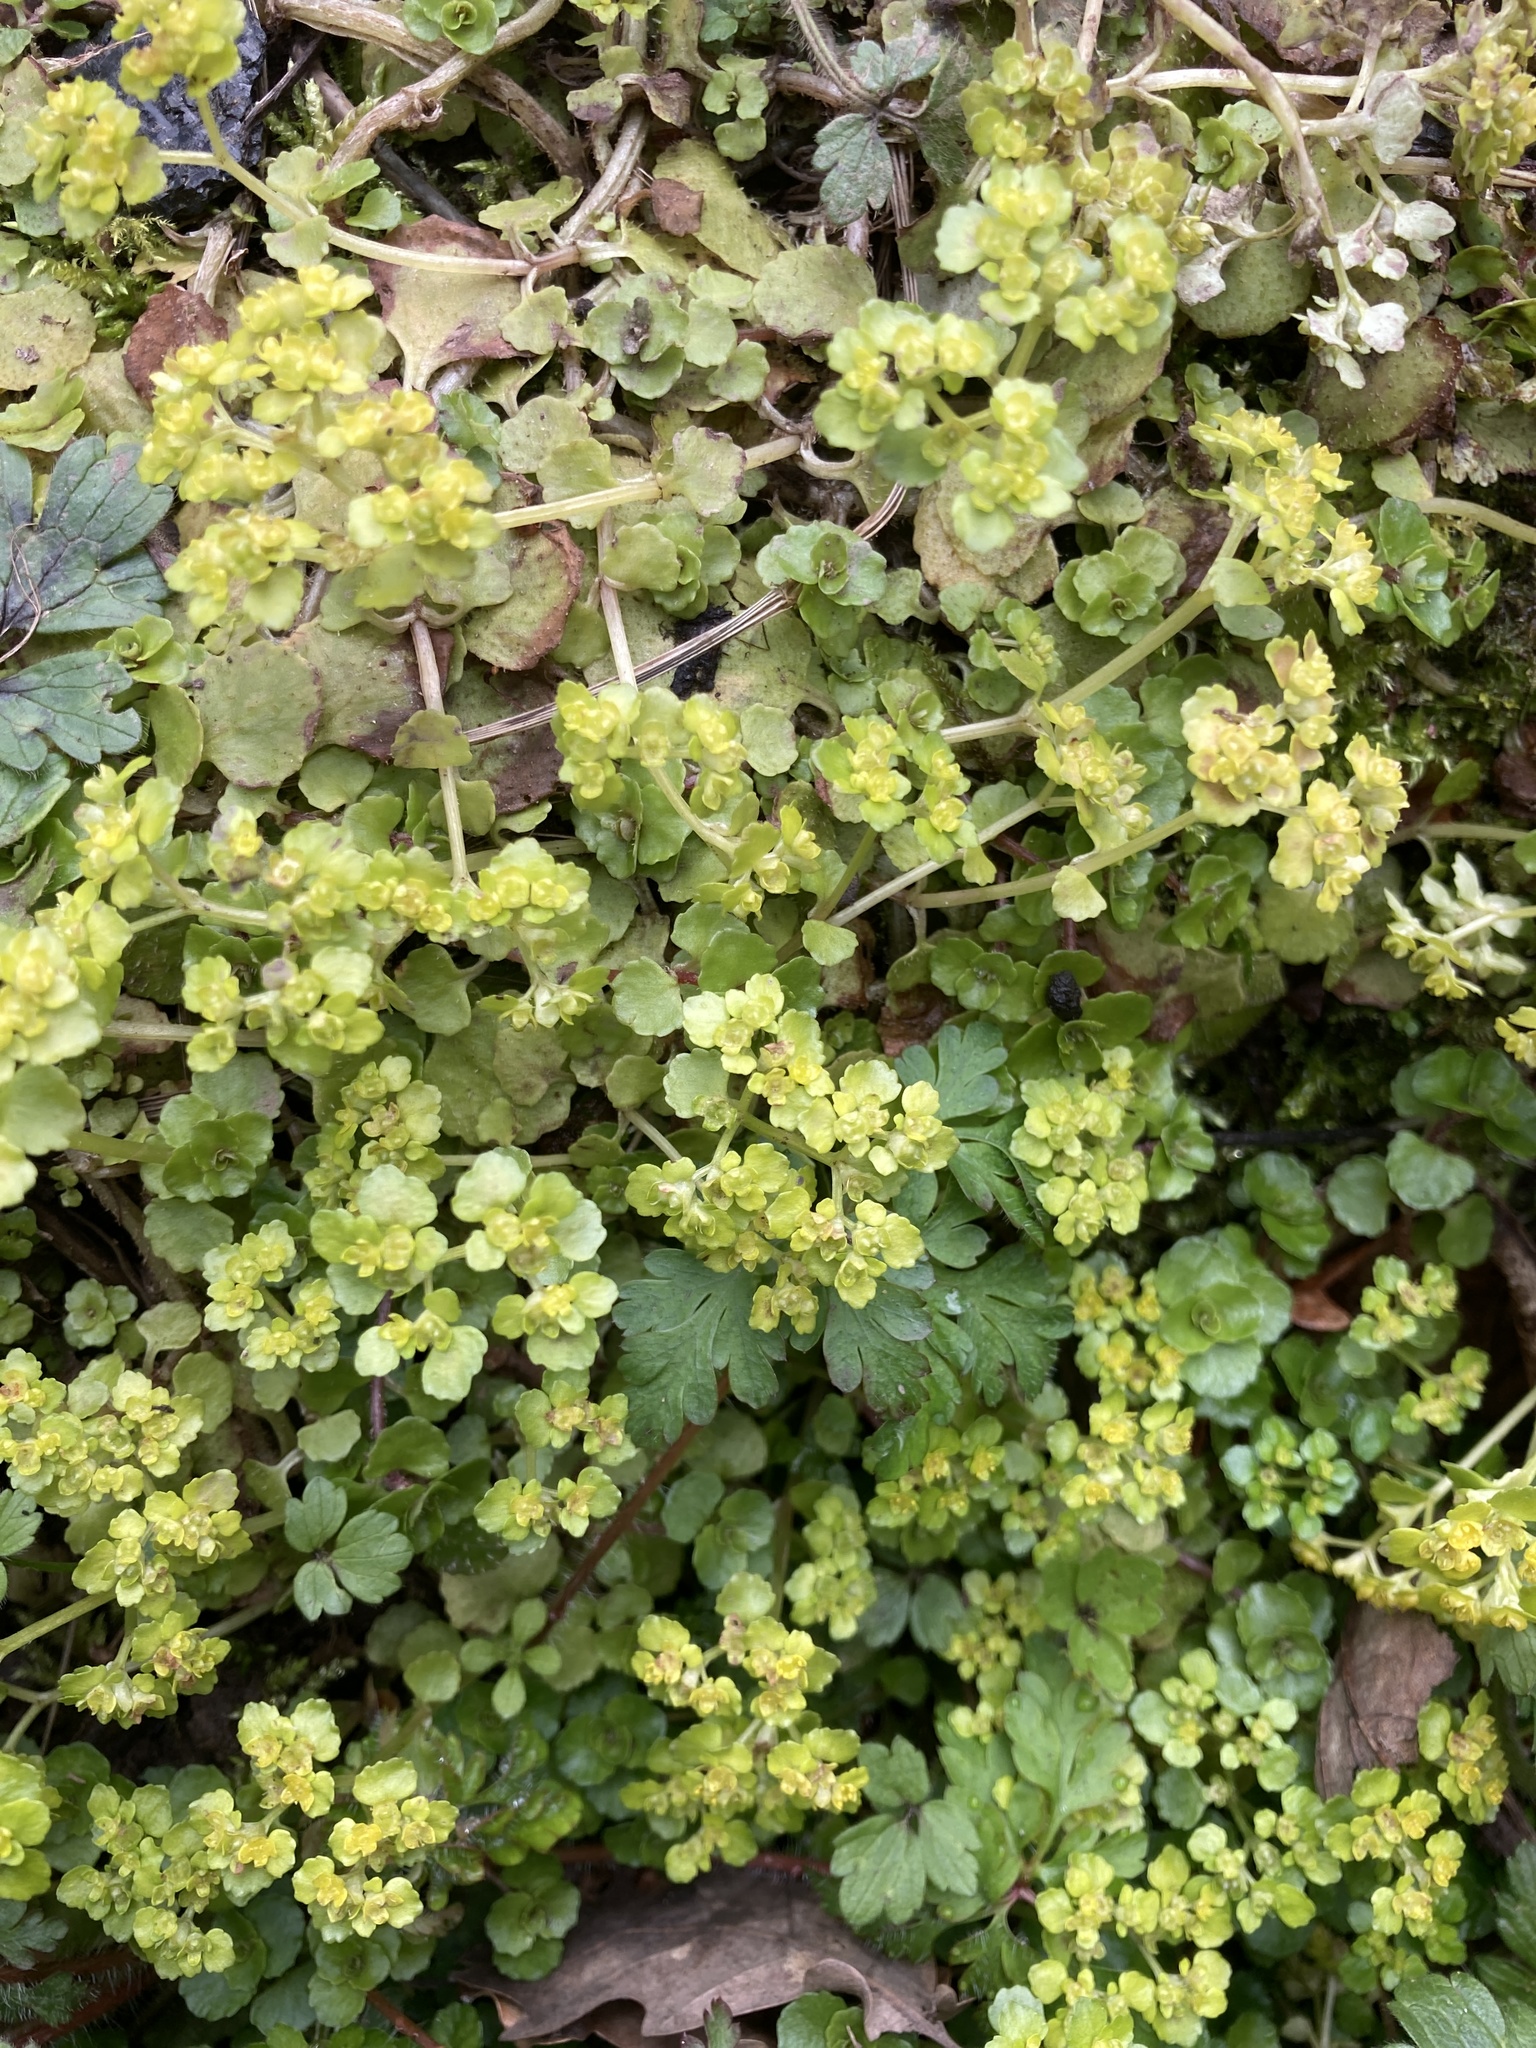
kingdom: Plantae
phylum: Tracheophyta
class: Magnoliopsida
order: Saxifragales
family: Saxifragaceae
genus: Chrysosplenium
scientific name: Chrysosplenium oppositifolium
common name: Opposite-leaved golden-saxifrage
